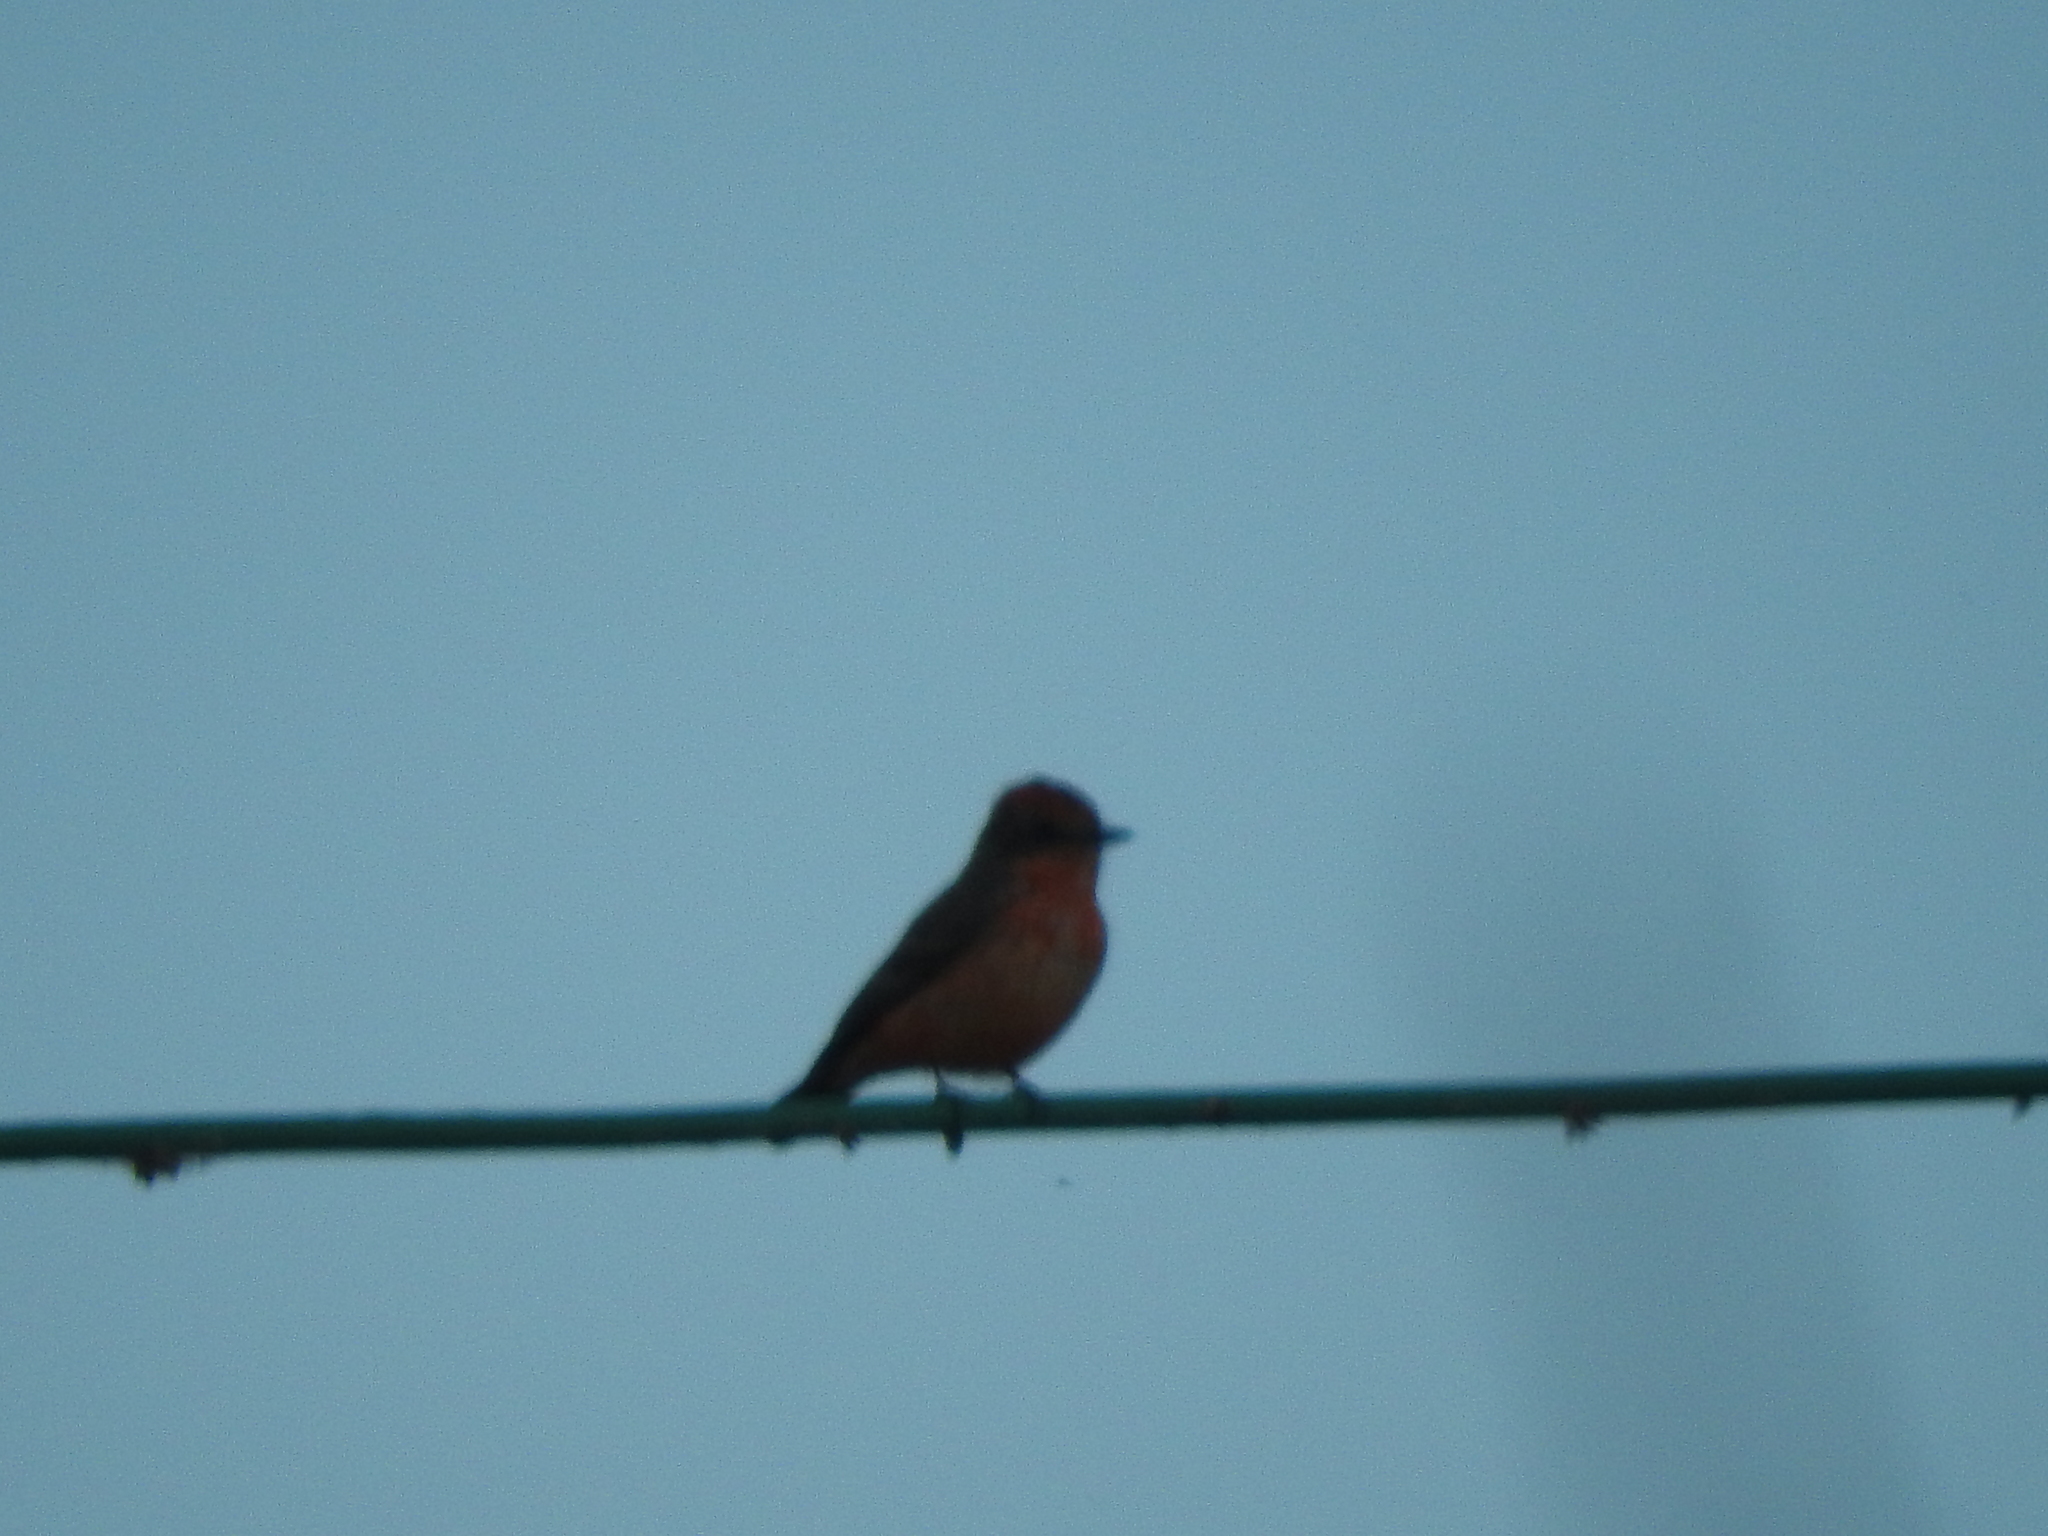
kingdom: Animalia
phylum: Chordata
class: Aves
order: Passeriformes
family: Tyrannidae
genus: Pyrocephalus
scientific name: Pyrocephalus rubinus
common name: Vermilion flycatcher
